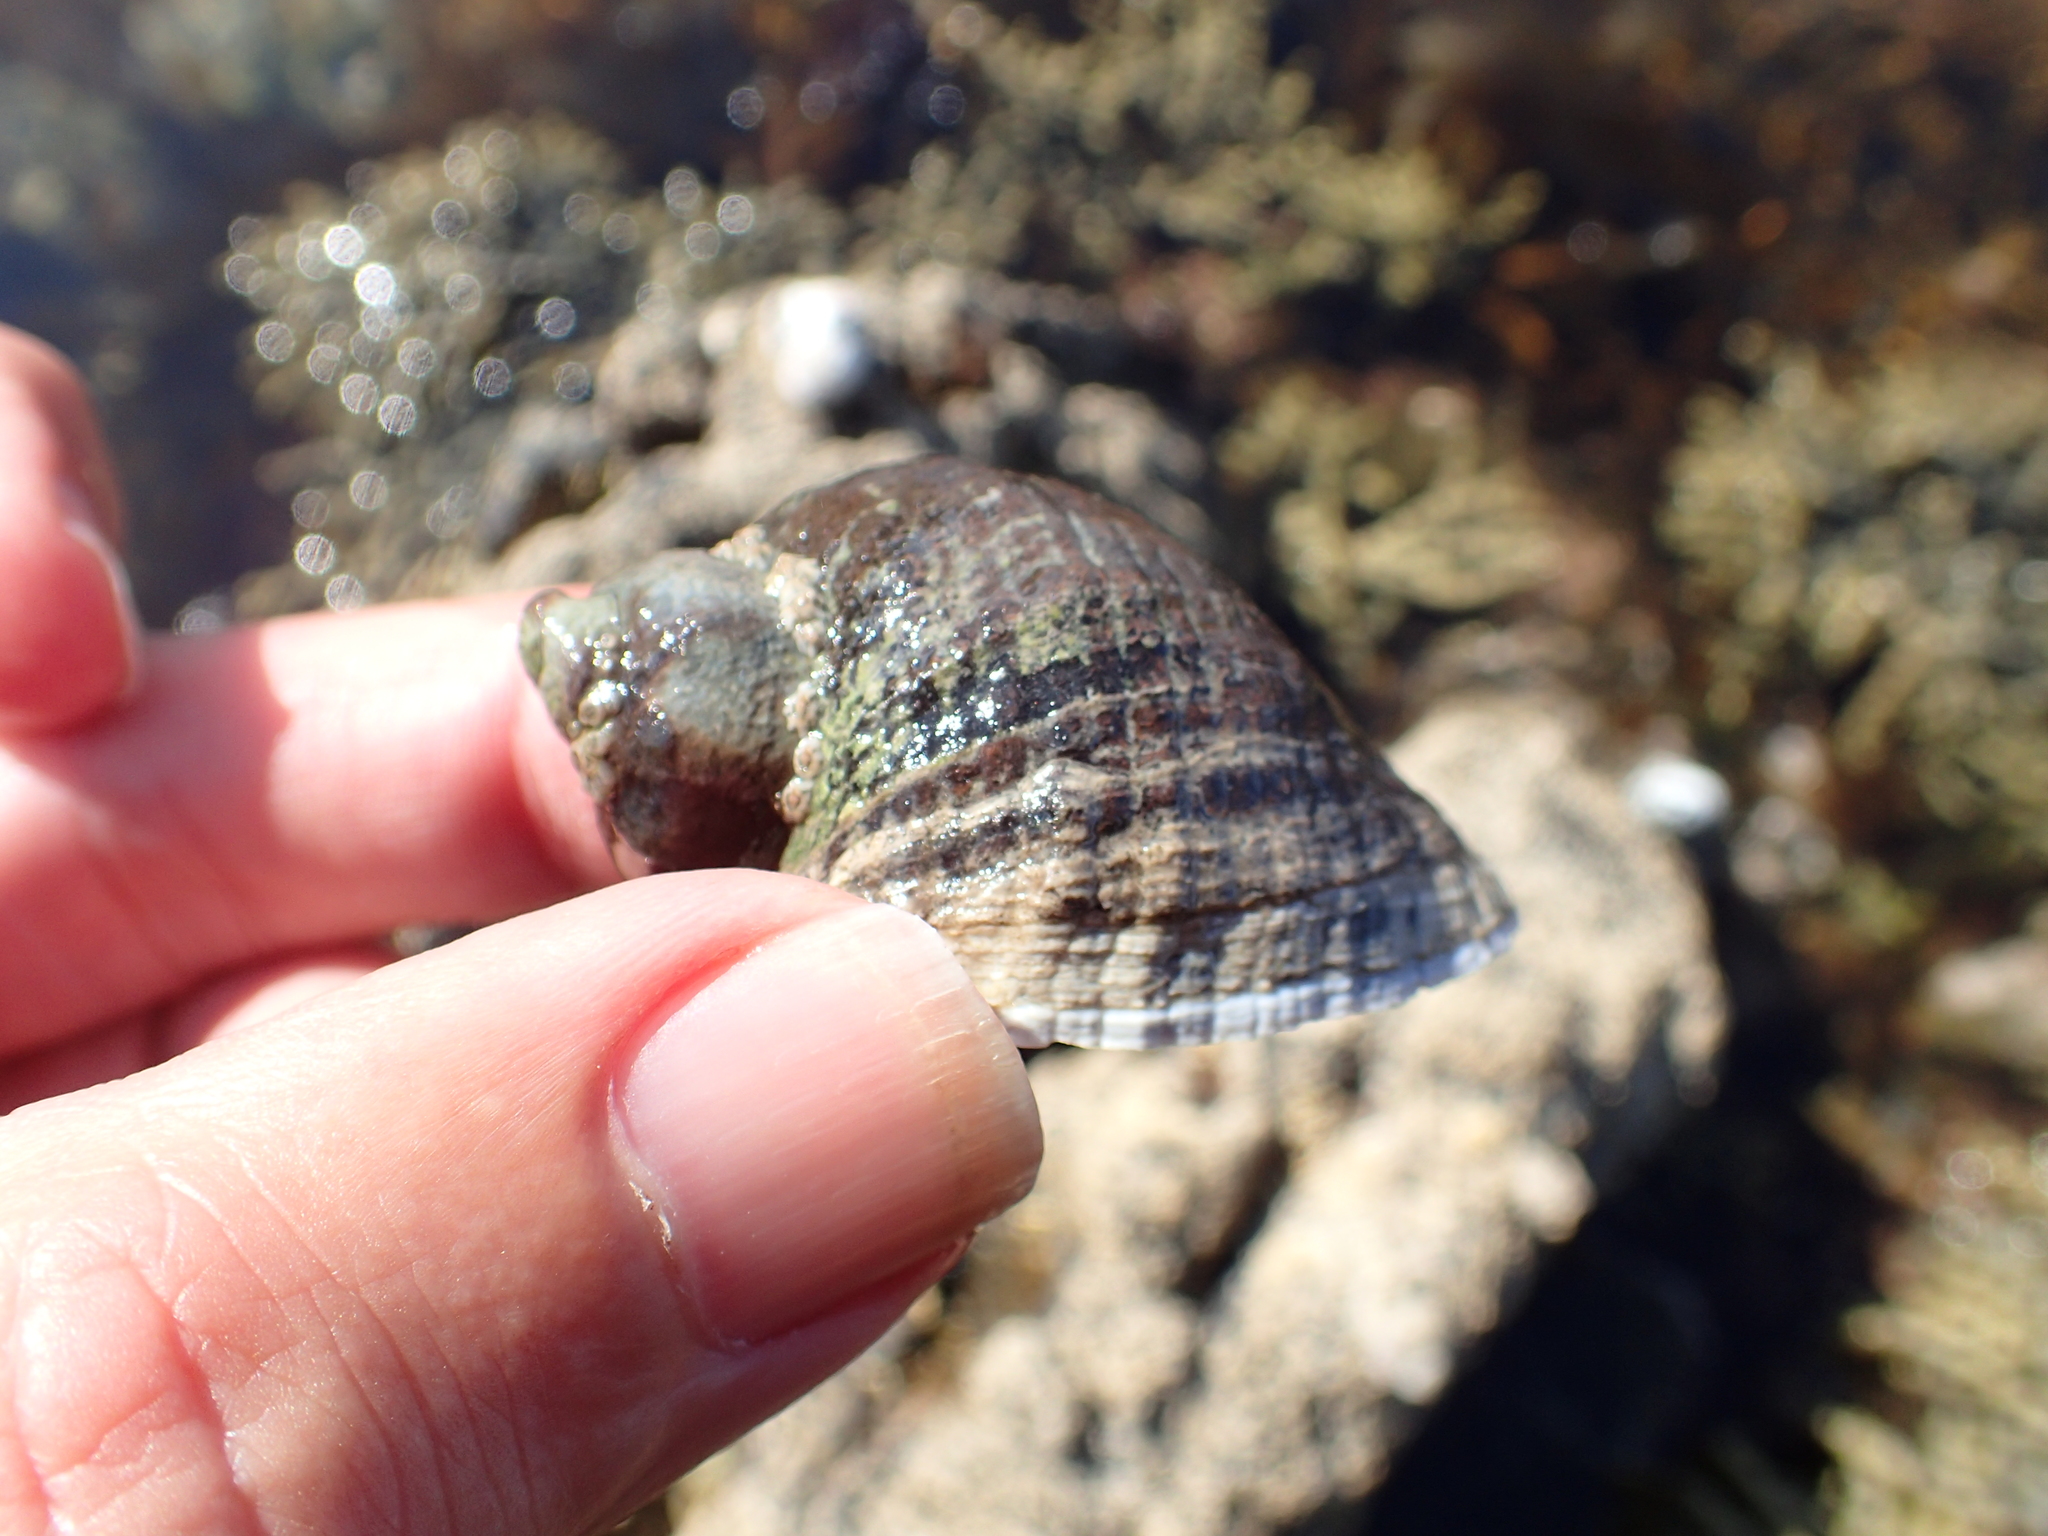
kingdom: Animalia
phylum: Mollusca
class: Gastropoda
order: Neogastropoda
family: Muricidae
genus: Haustrum
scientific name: Haustrum haustorium
